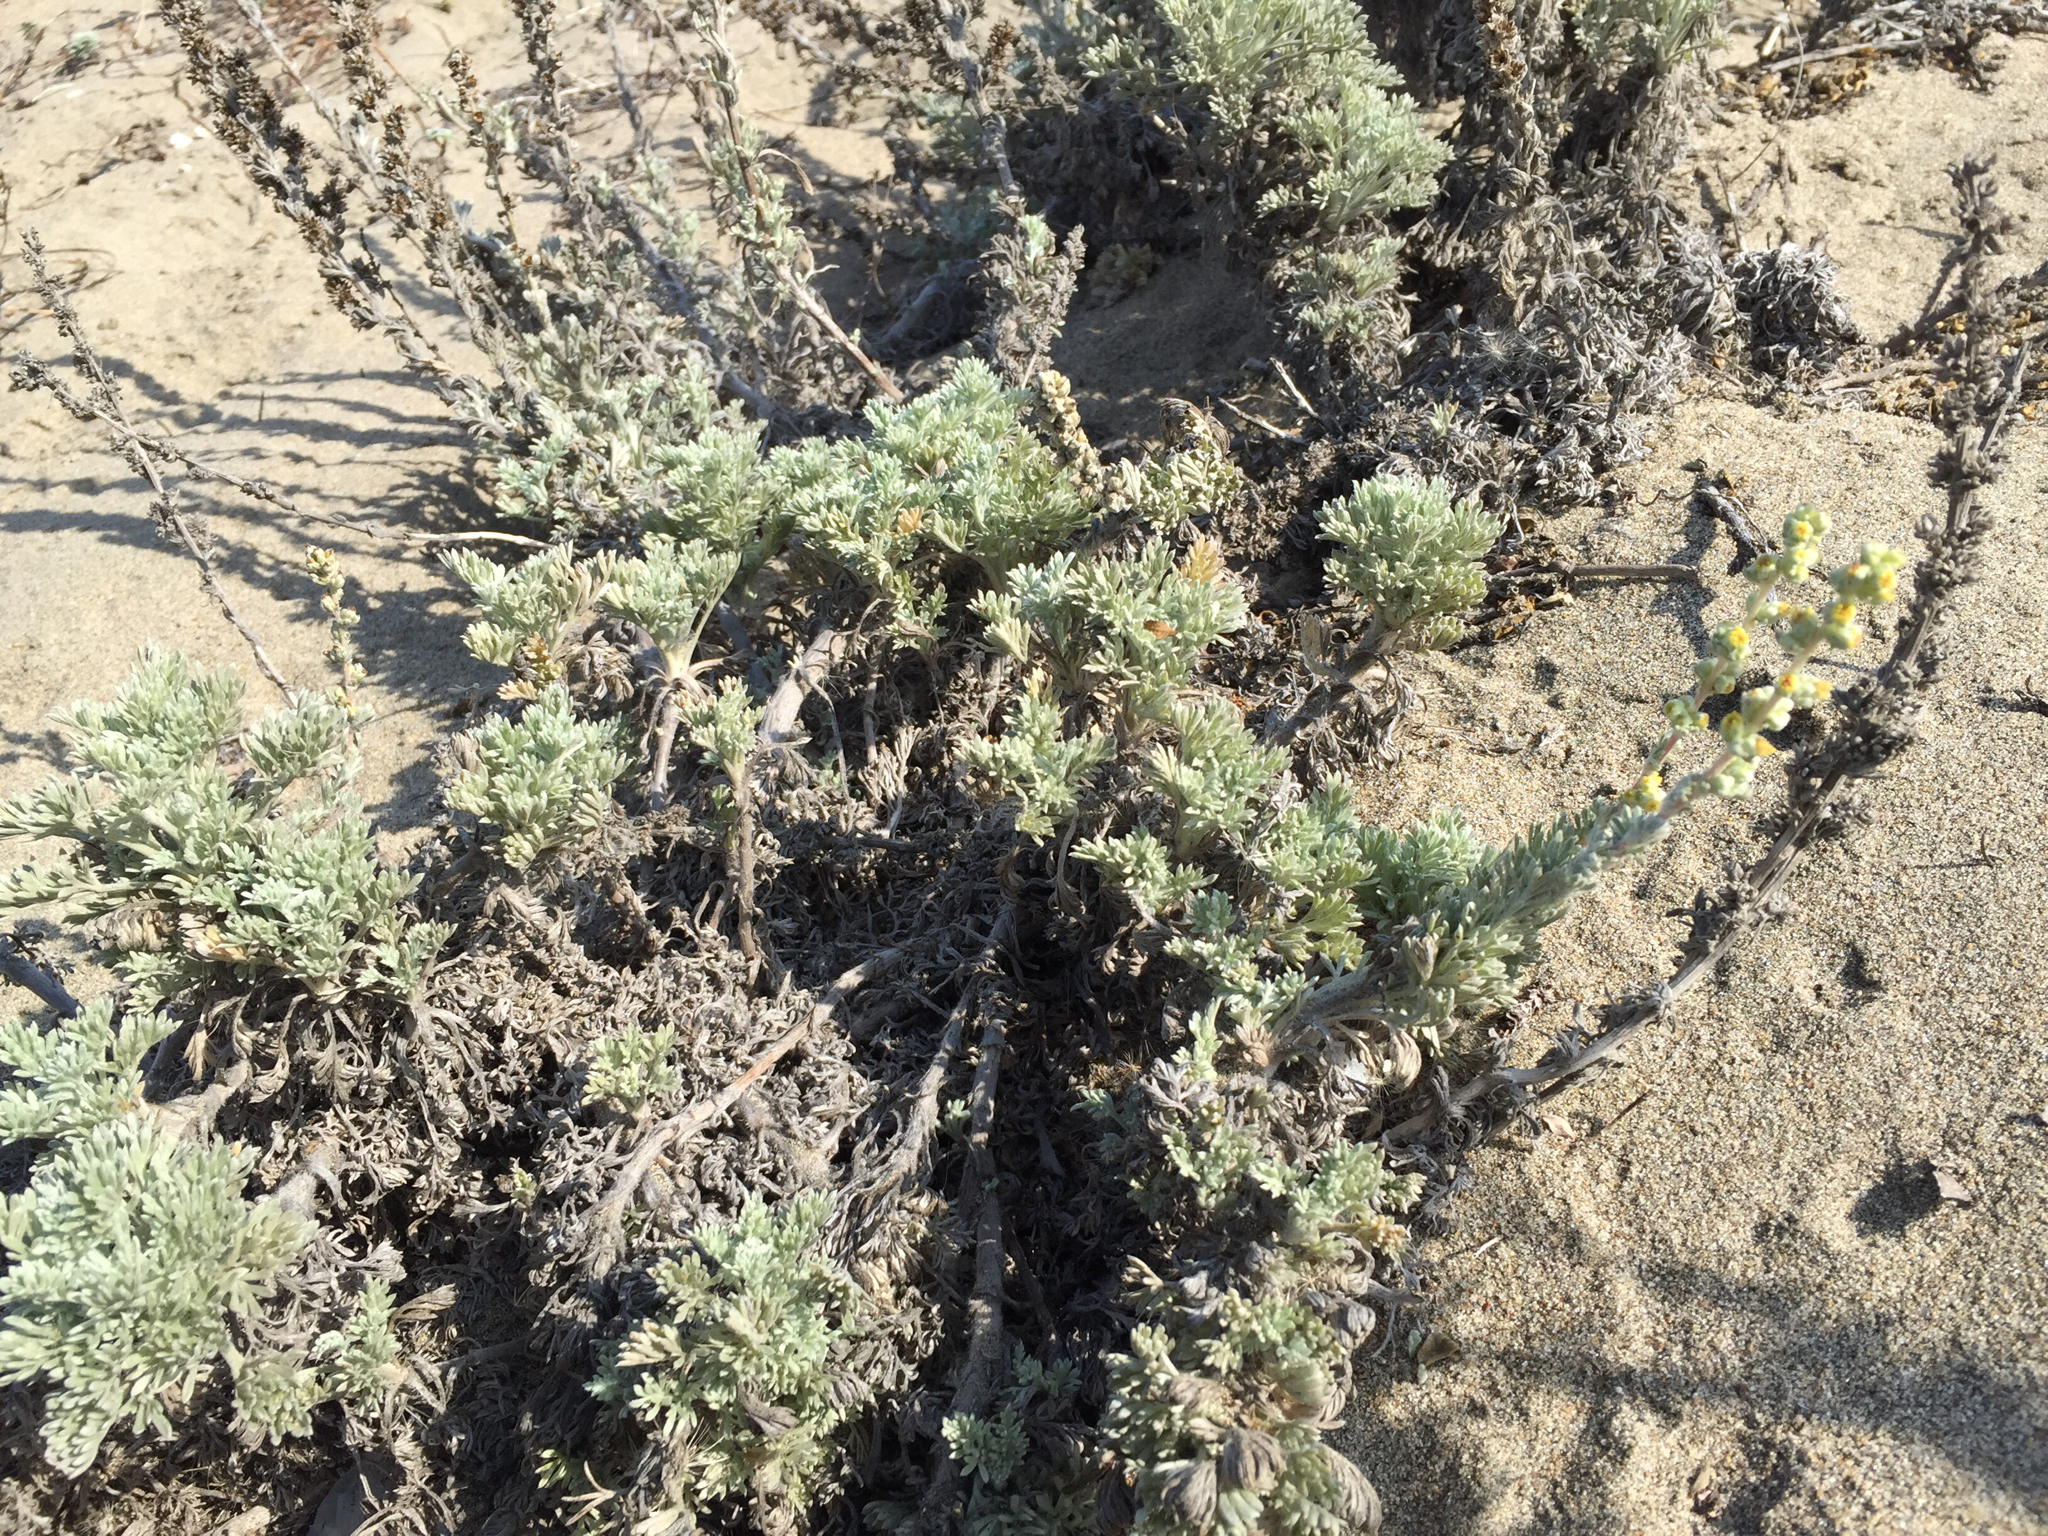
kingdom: Plantae
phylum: Tracheophyta
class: Magnoliopsida
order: Asterales
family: Asteraceae
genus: Artemisia
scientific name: Artemisia pycnocephala
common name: Coastal sagewort
